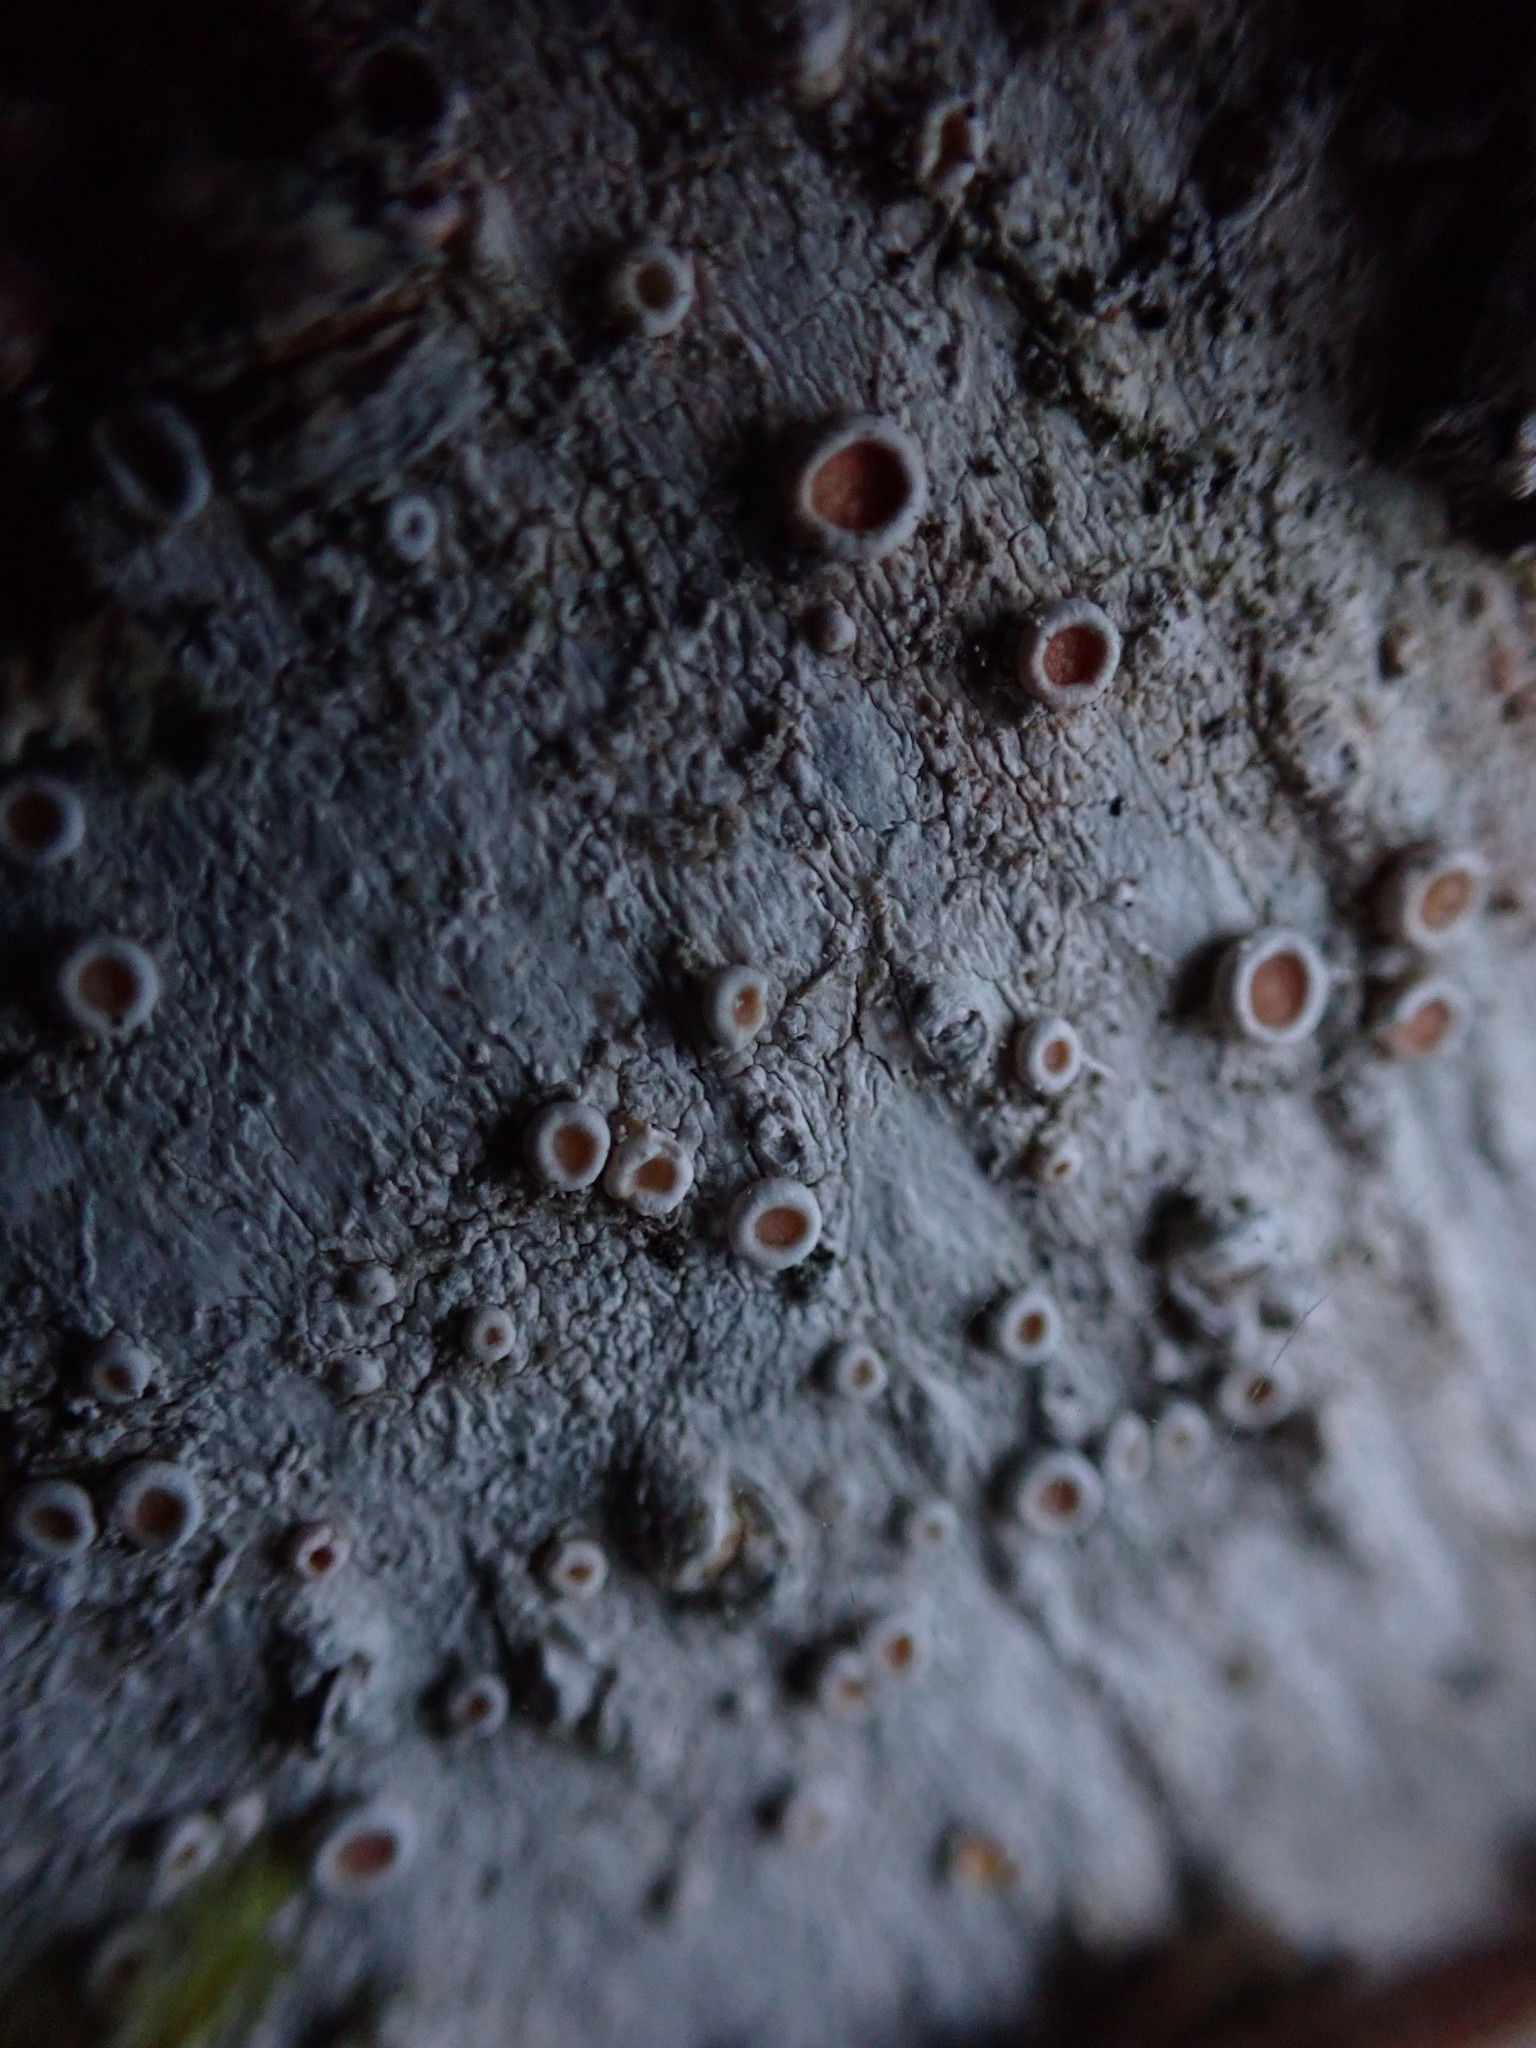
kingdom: Fungi
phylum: Ascomycota
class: Lecanoromycetes
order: Pertusariales
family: Ochrolechiaceae
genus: Ochrolechia
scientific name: Ochrolechia laevigata
